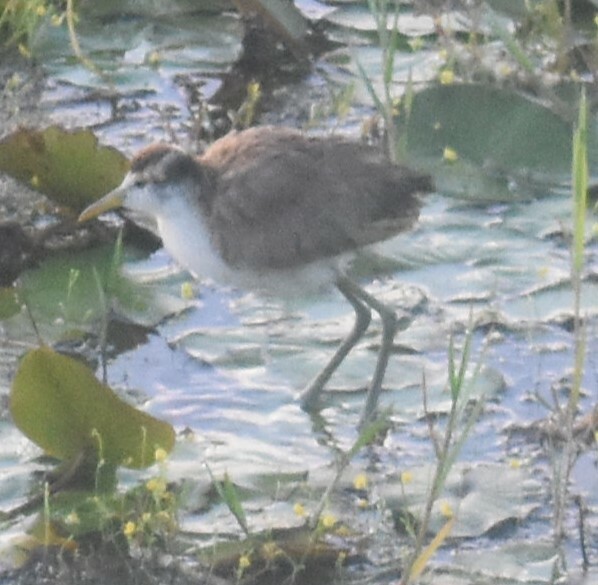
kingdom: Animalia
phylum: Chordata
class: Aves
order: Charadriiformes
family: Jacanidae
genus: Jacana
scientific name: Jacana spinosa
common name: Northern jacana
